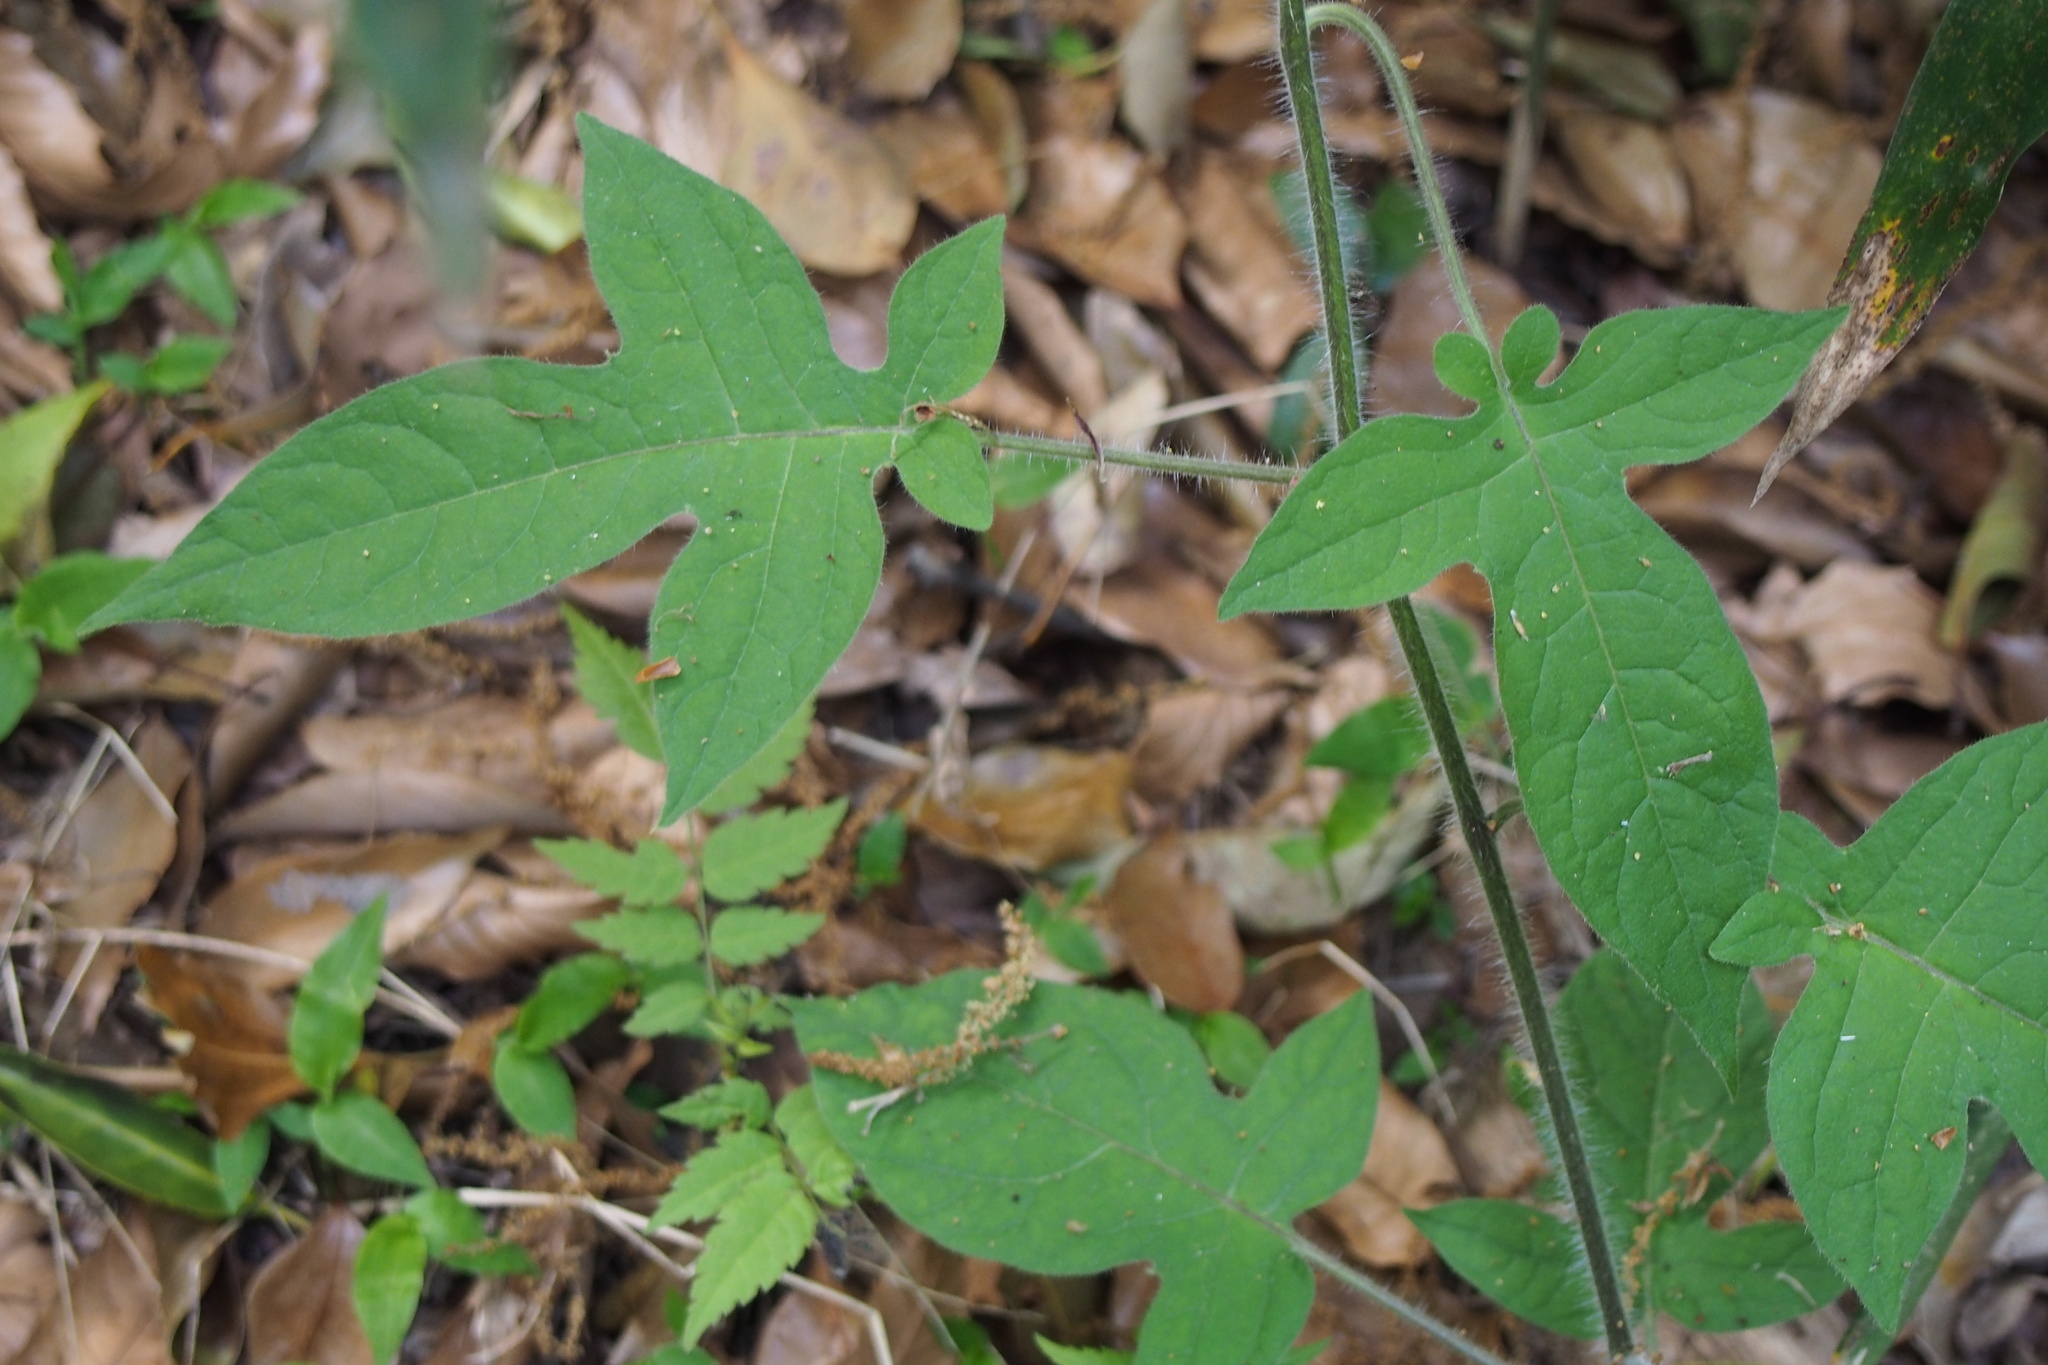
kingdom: Plantae
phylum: Tracheophyta
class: Magnoliopsida
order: Solanales
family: Solanaceae
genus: Solanum
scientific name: Solanum lyratum
